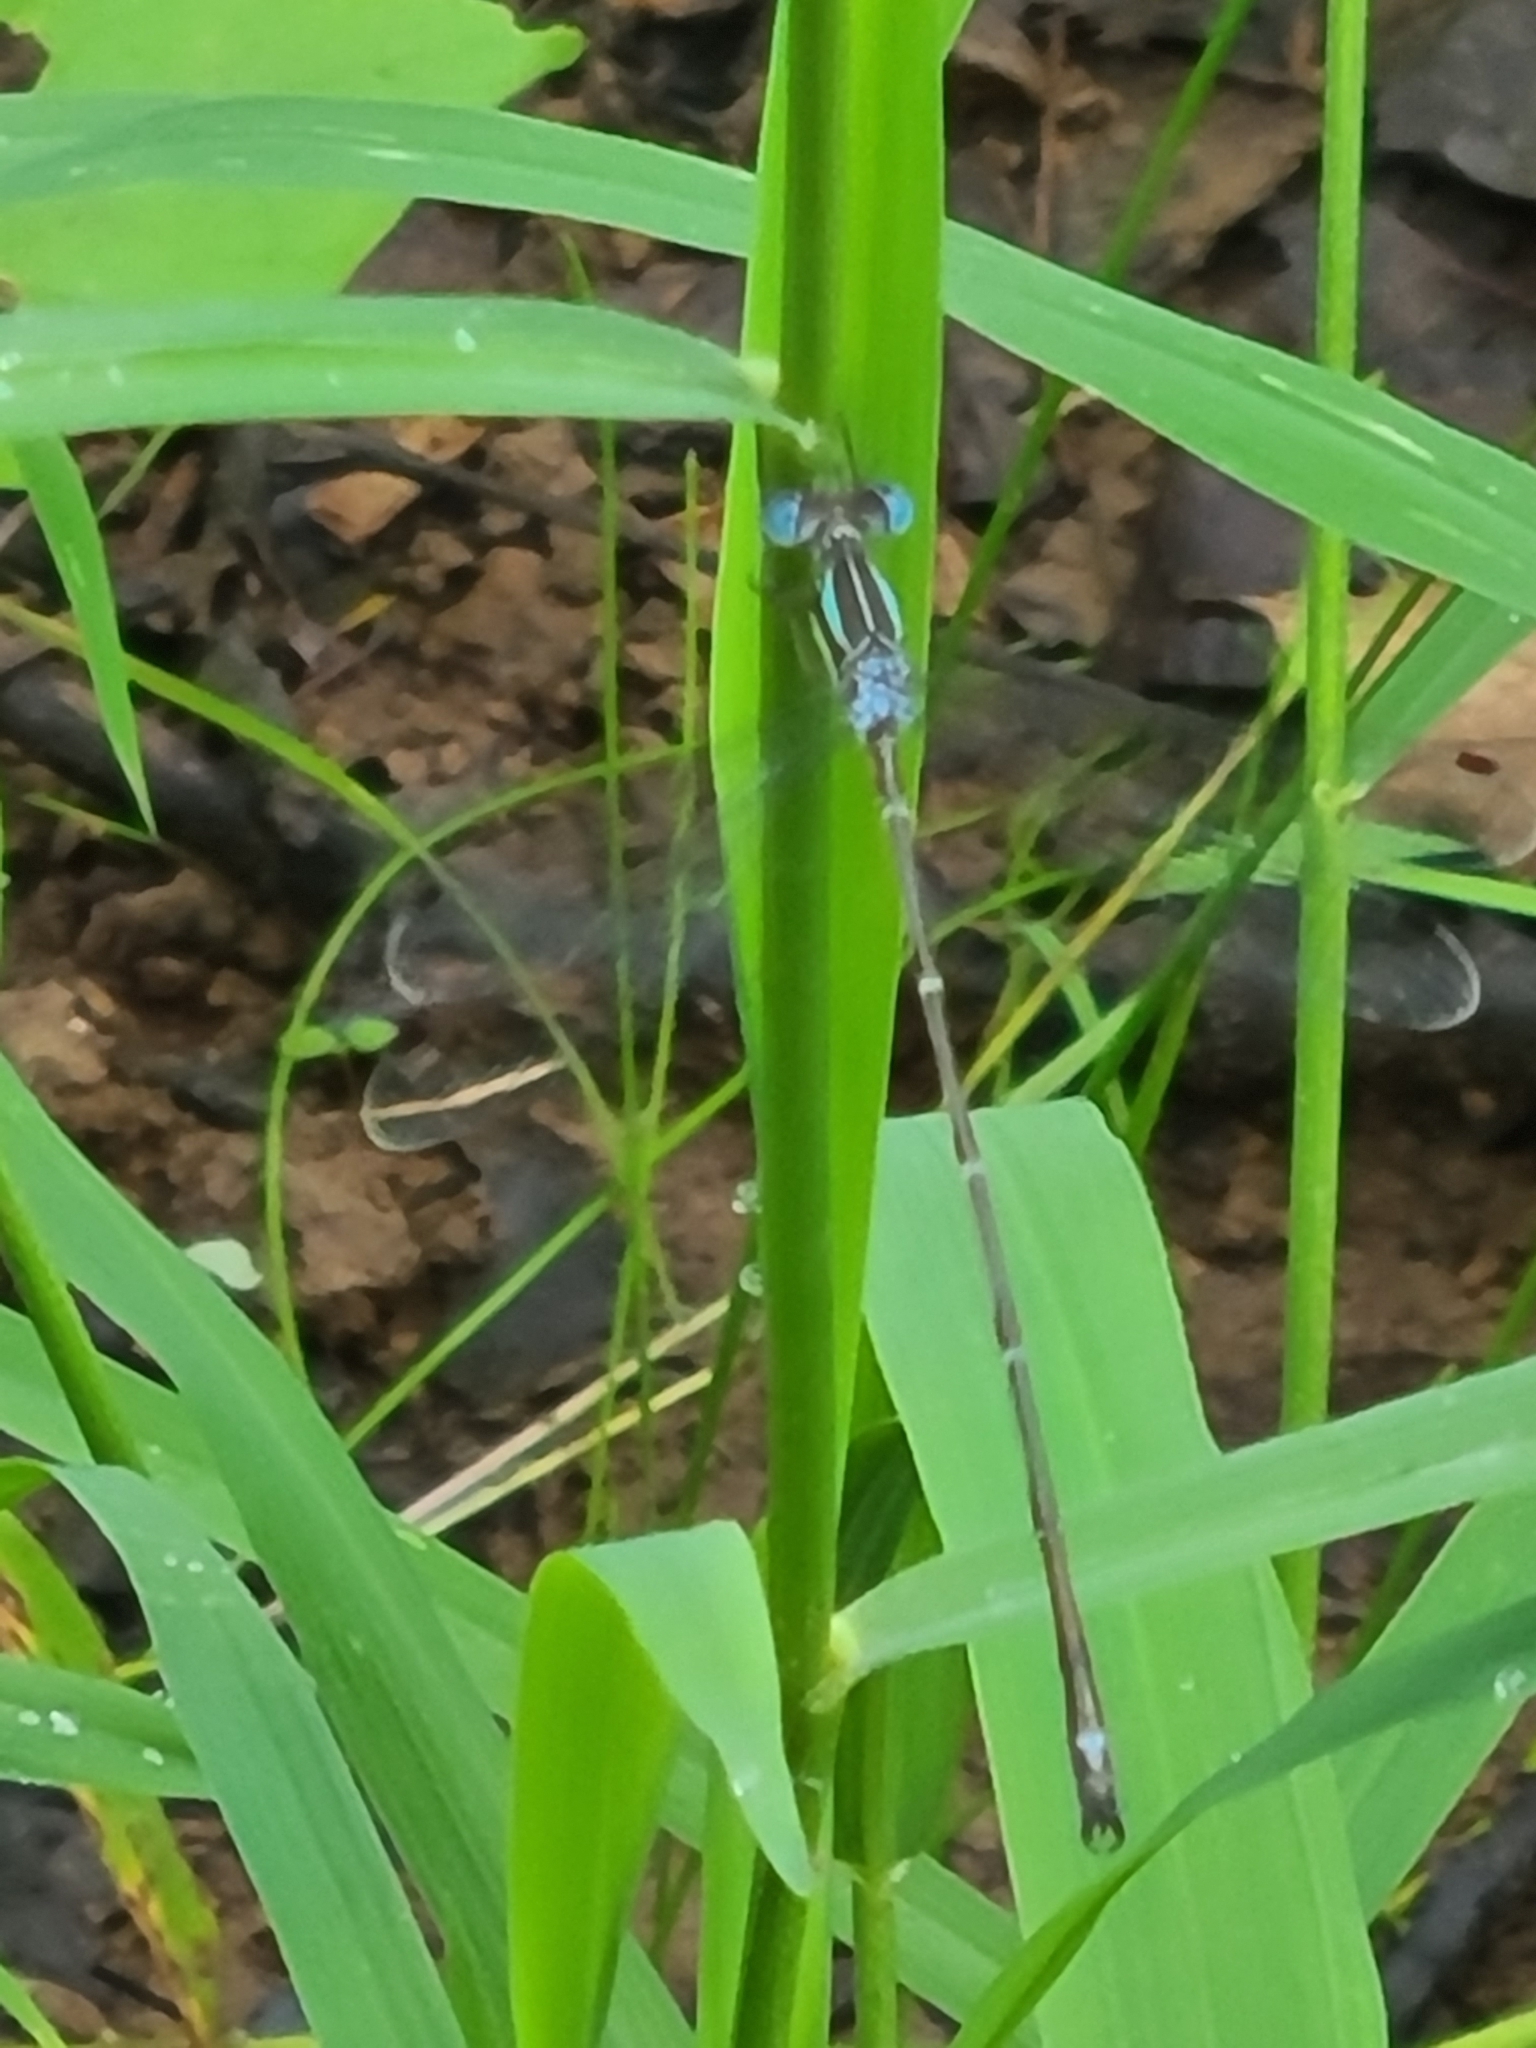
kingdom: Animalia
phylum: Arthropoda
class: Insecta
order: Odonata
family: Lestidae
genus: Lestes
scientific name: Lestes rectangularis
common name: Slender spreadwing
